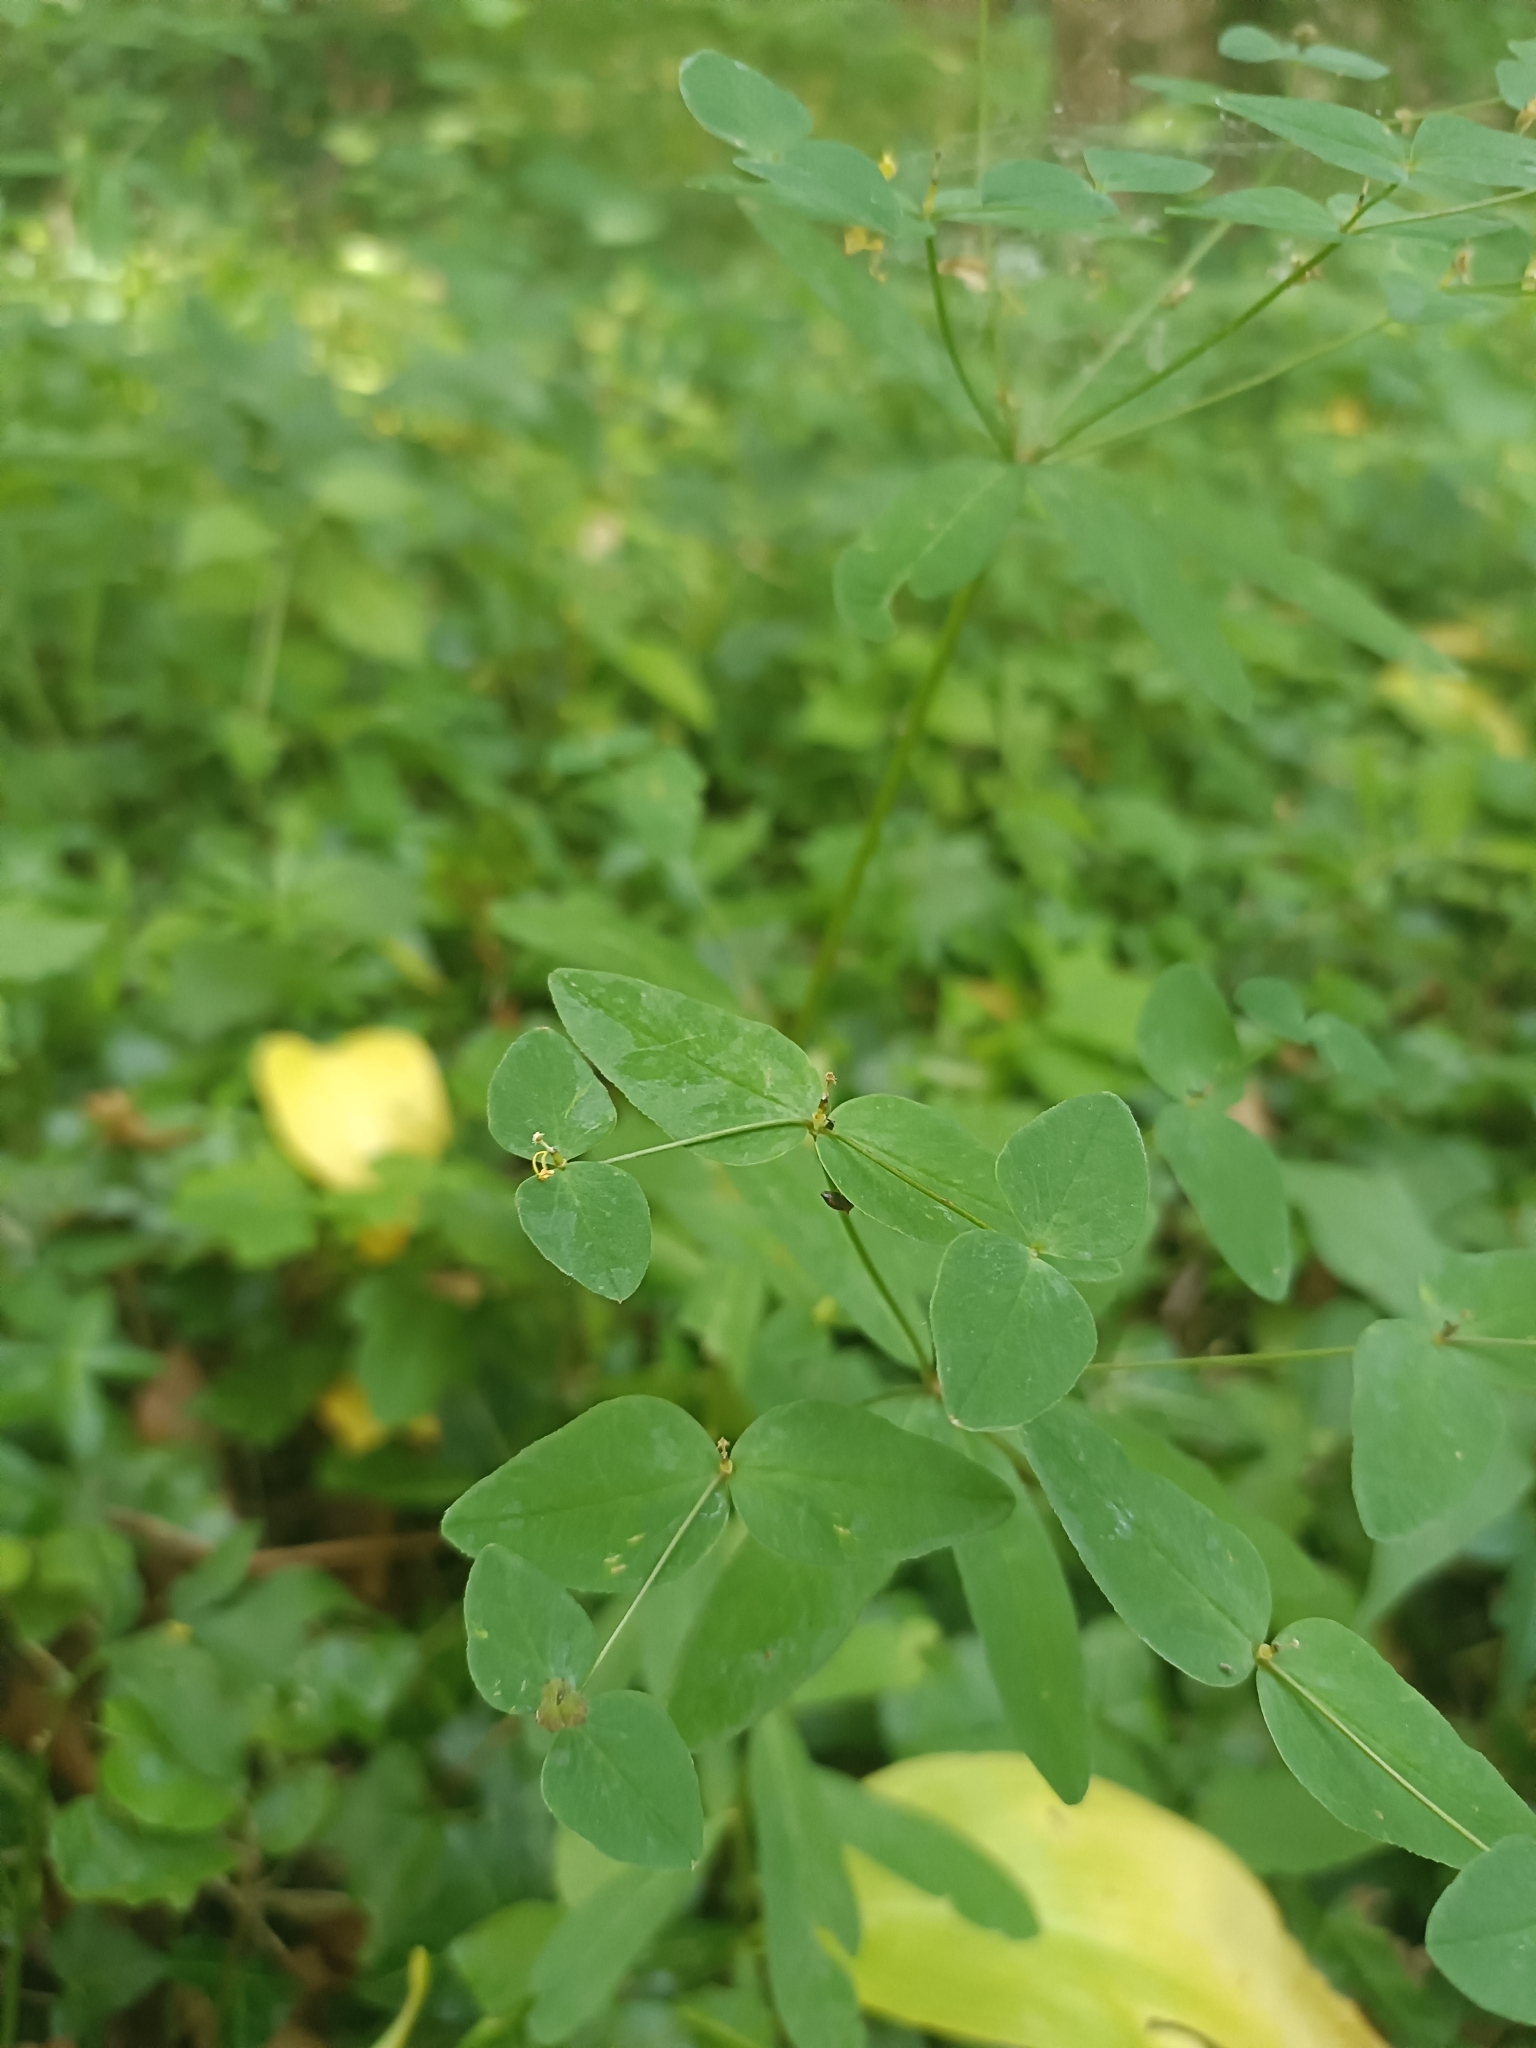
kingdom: Plantae
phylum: Tracheophyta
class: Magnoliopsida
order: Malpighiales
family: Euphorbiaceae
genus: Euphorbia
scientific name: Euphorbia dulcis
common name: Sweet spurge
